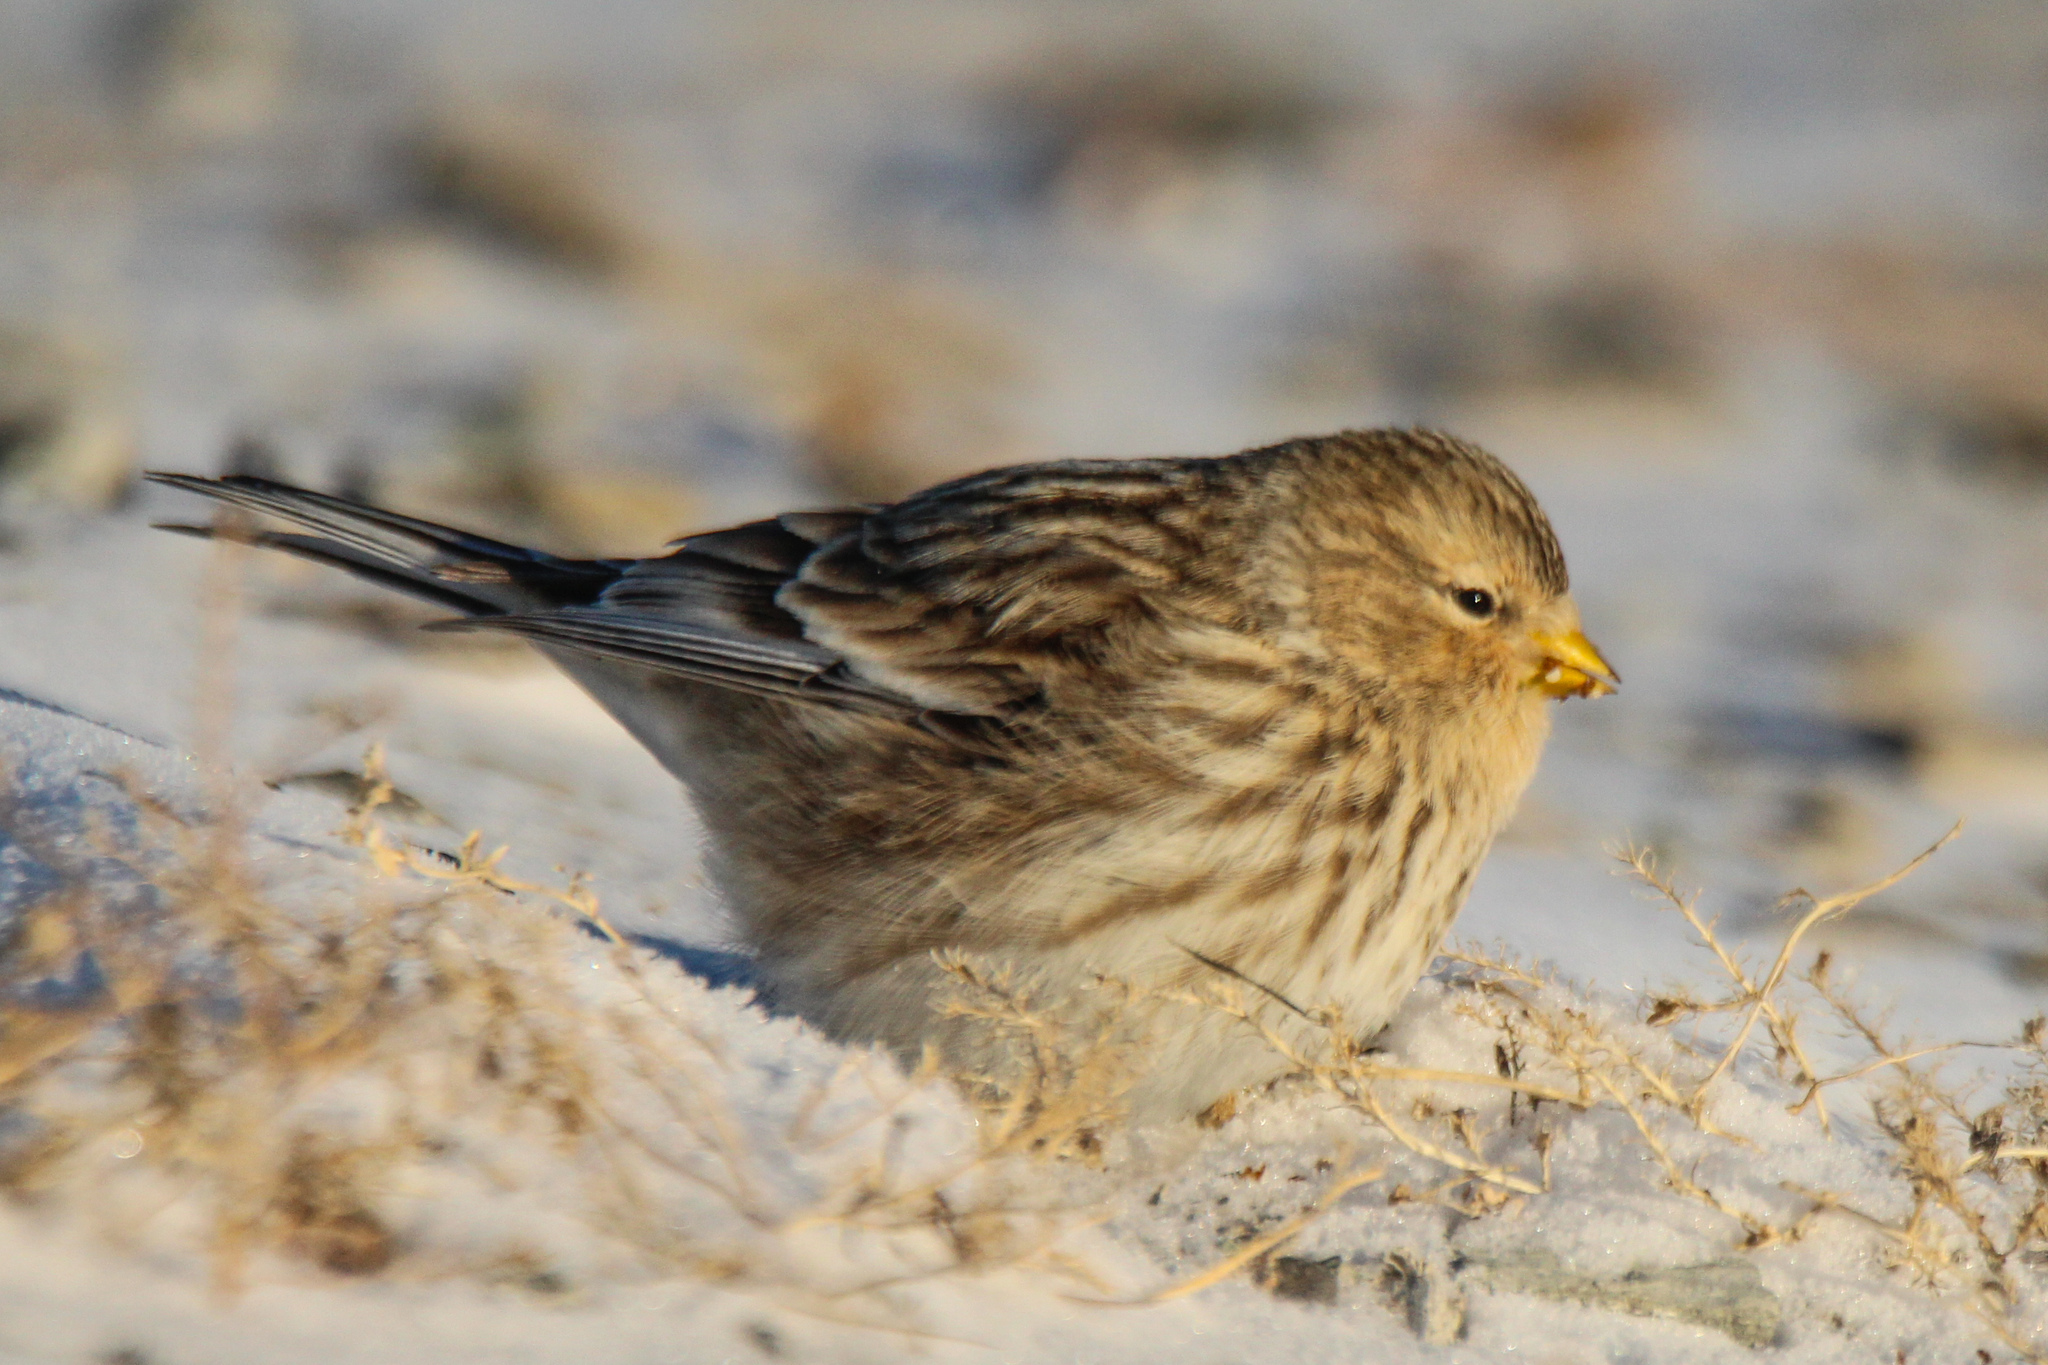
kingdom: Animalia
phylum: Chordata
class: Aves
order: Passeriformes
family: Fringillidae
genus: Linaria
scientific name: Linaria flavirostris
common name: Twite
